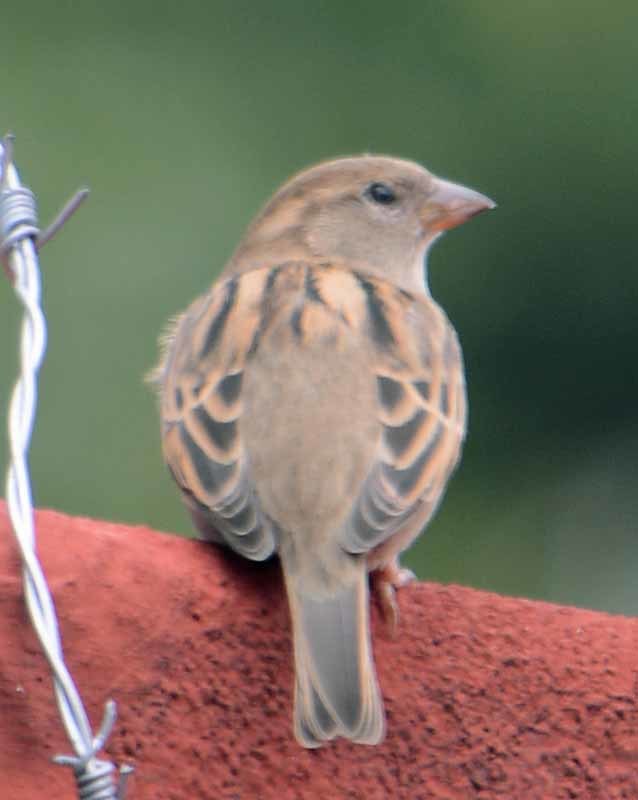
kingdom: Animalia
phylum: Chordata
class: Aves
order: Passeriformes
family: Passeridae
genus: Passer
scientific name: Passer domesticus
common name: House sparrow
